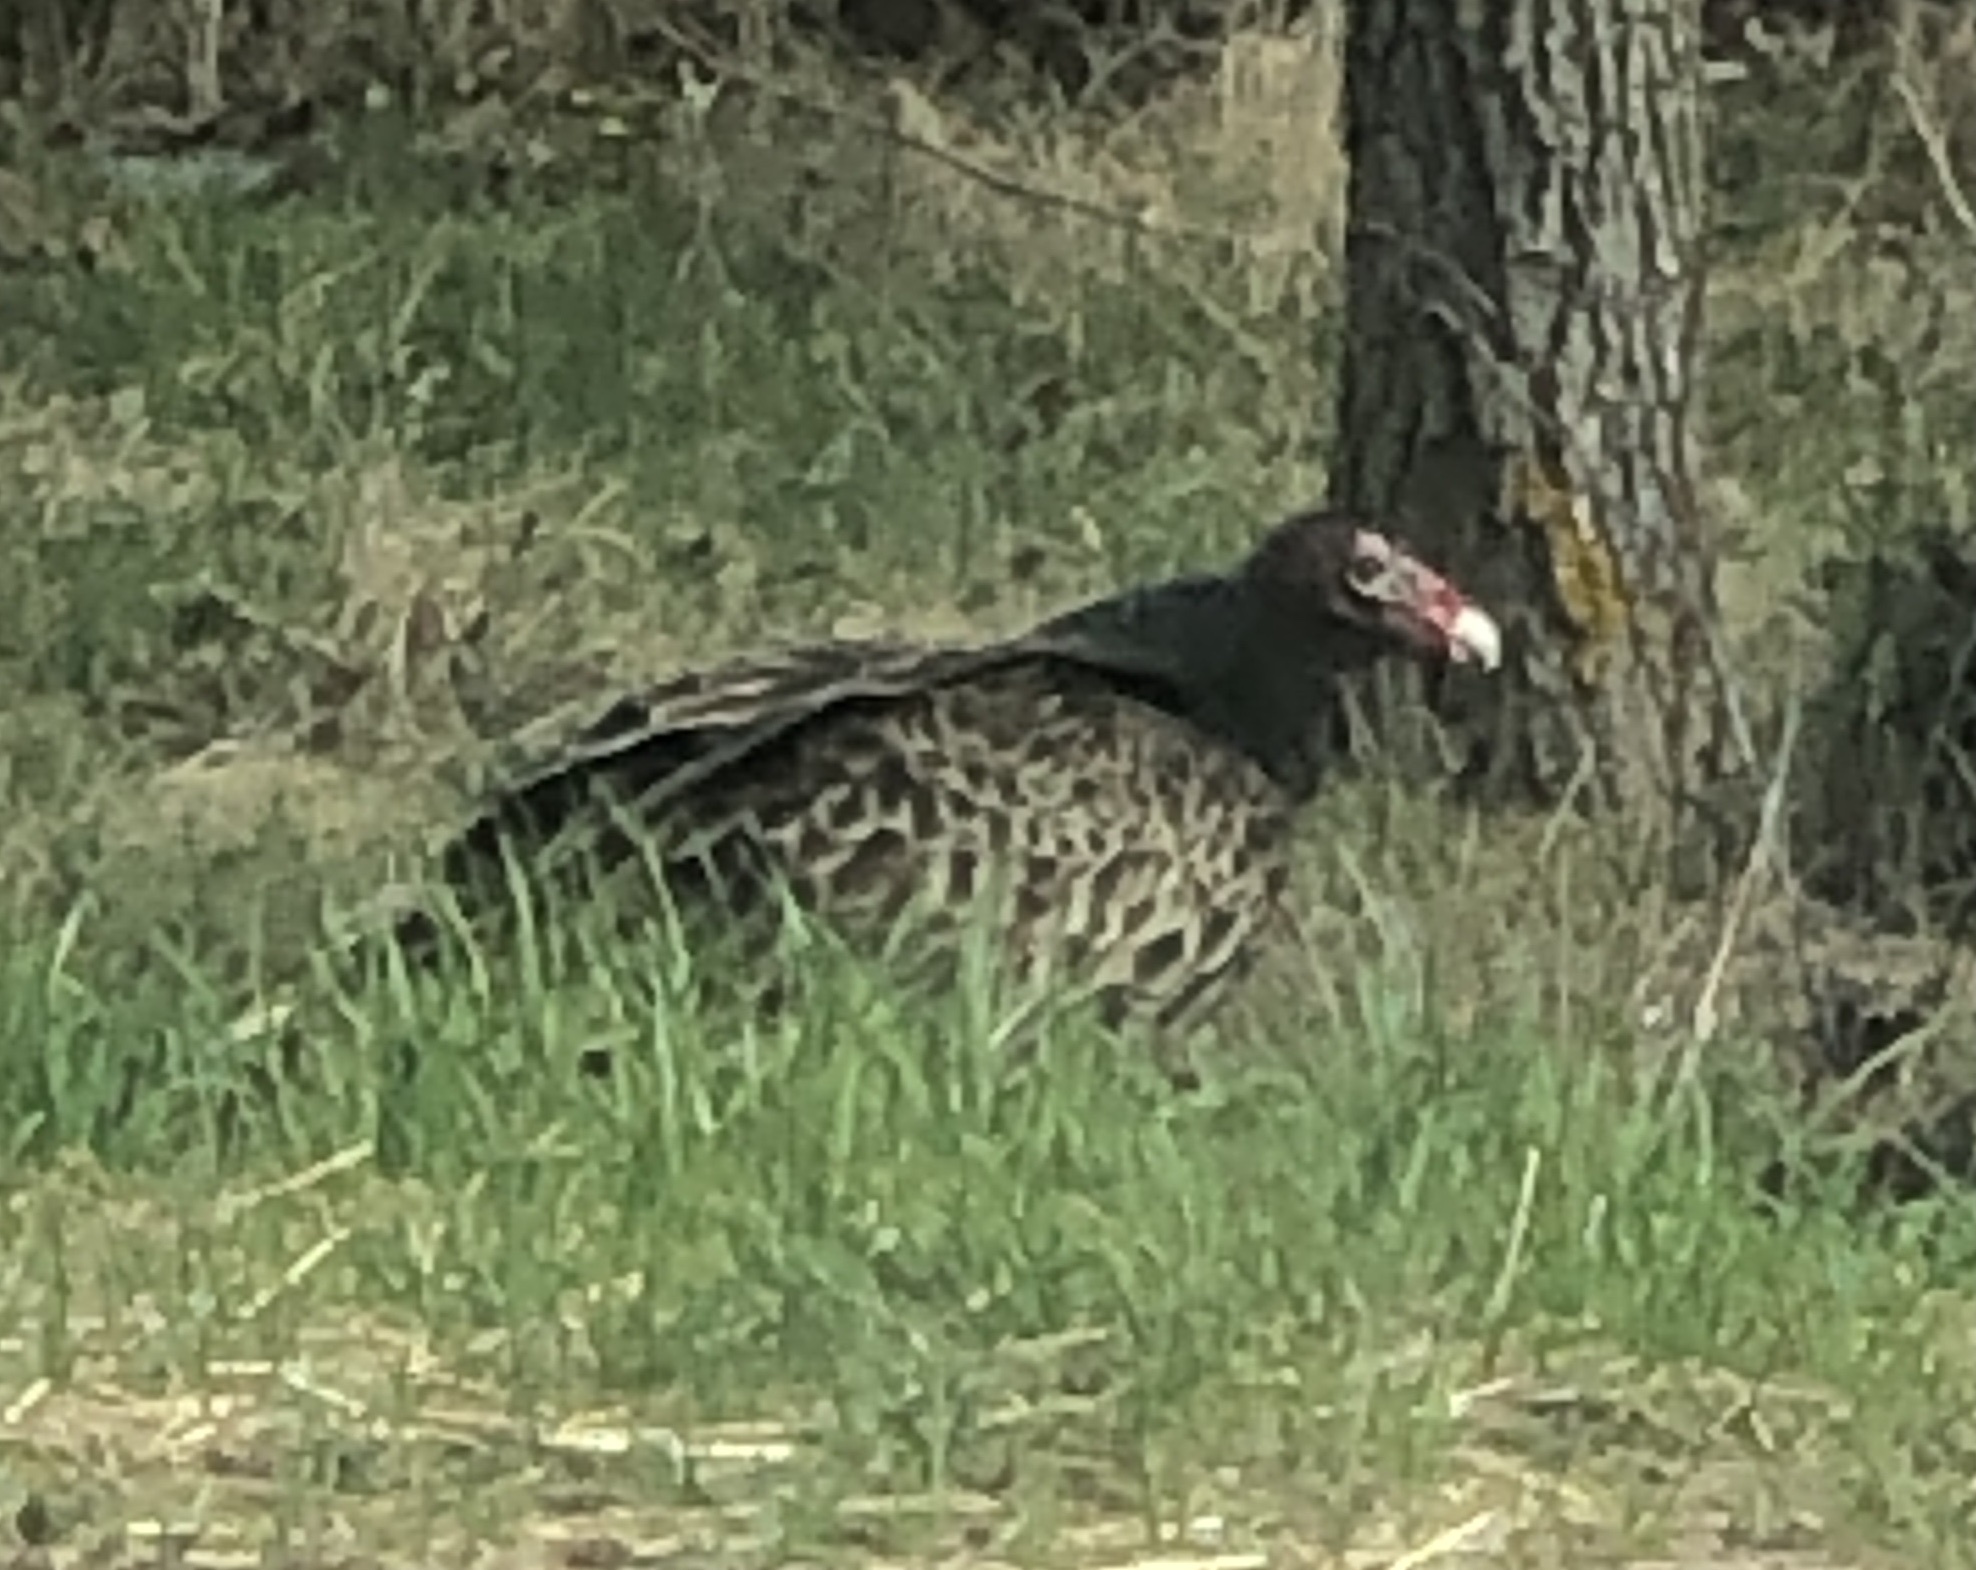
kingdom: Animalia
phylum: Chordata
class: Aves
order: Accipitriformes
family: Cathartidae
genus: Cathartes
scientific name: Cathartes aura
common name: Turkey vulture
